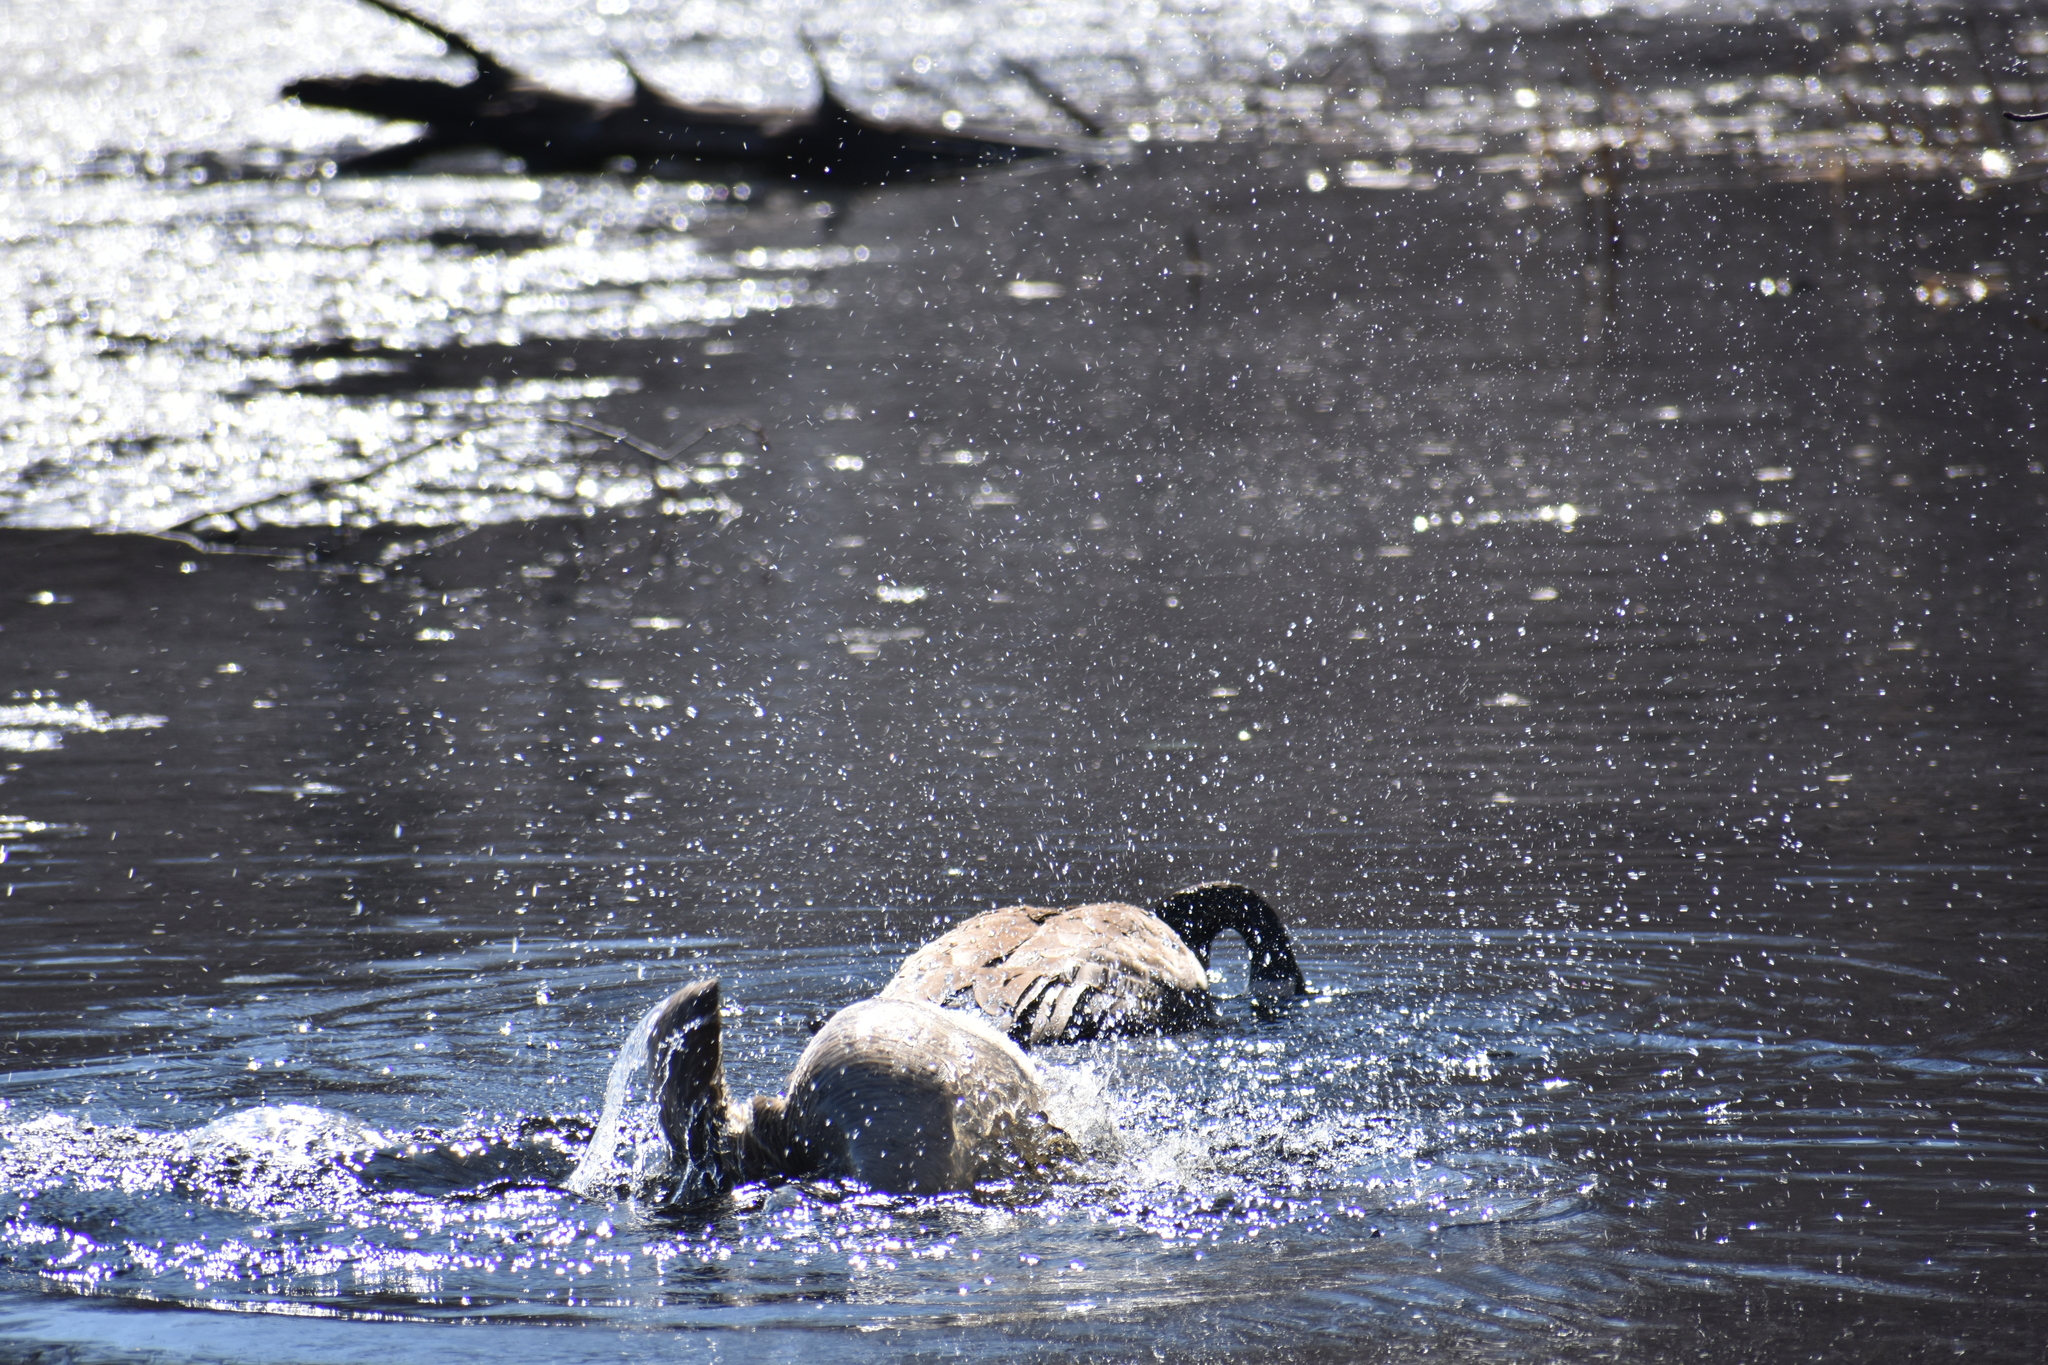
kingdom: Animalia
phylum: Chordata
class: Aves
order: Anseriformes
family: Anatidae
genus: Branta
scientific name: Branta canadensis
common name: Canada goose
